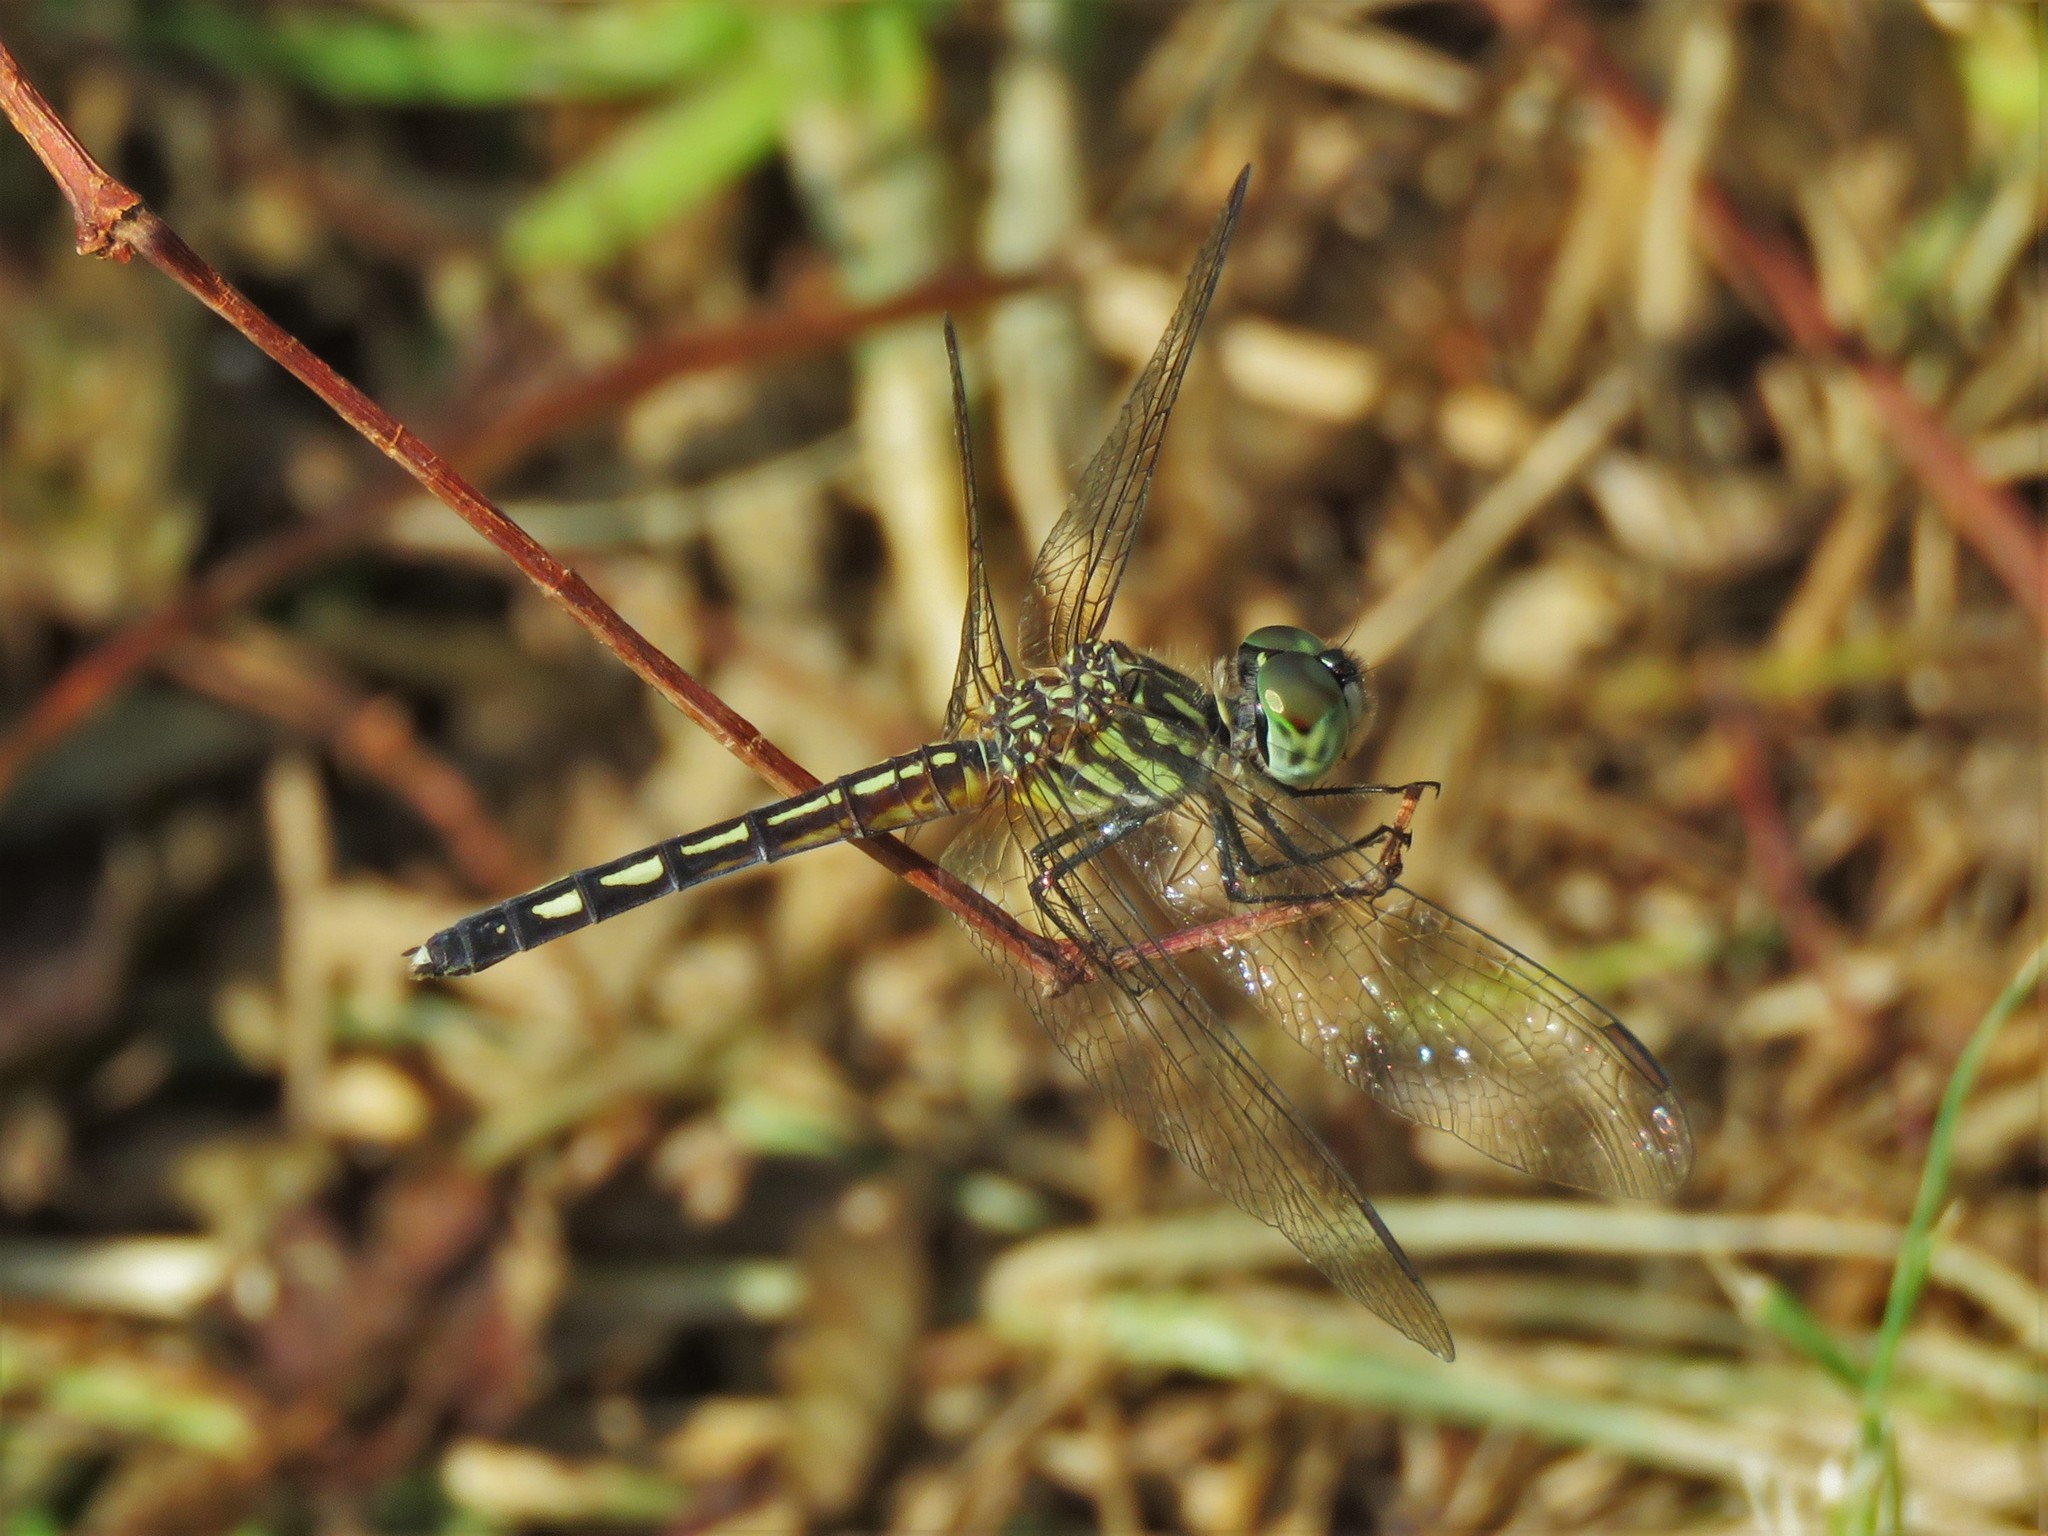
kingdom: Animalia
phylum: Arthropoda
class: Insecta
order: Odonata
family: Libellulidae
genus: Pachydiplax
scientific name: Pachydiplax longipennis
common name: Blue dasher
